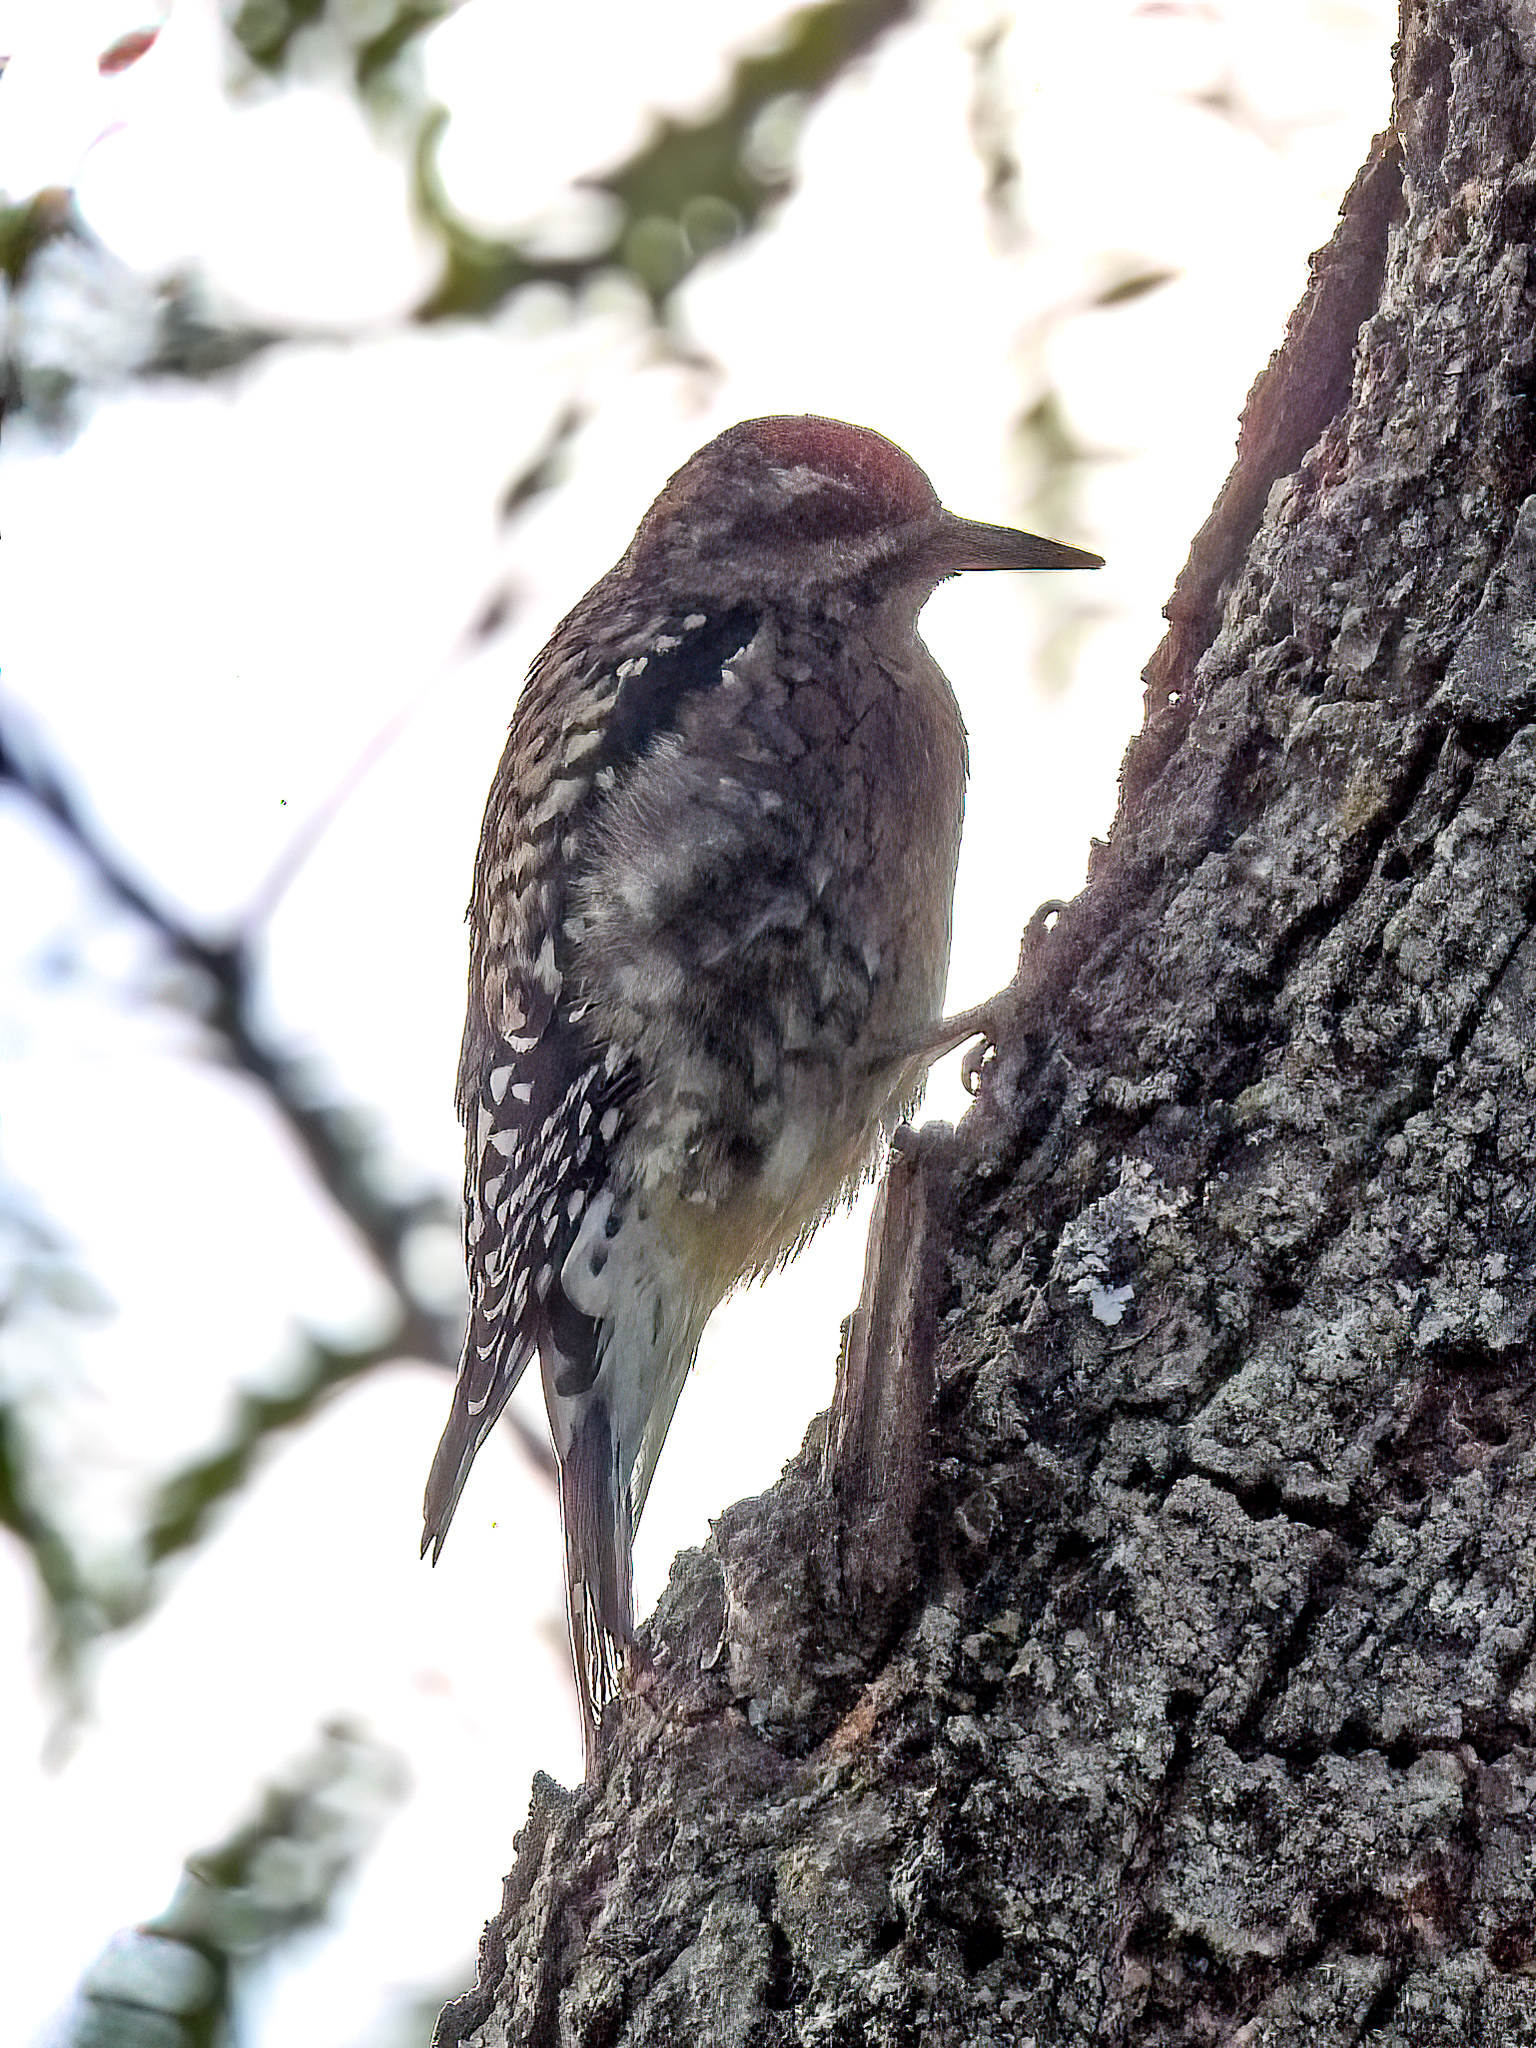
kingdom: Animalia
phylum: Chordata
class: Aves
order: Piciformes
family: Picidae
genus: Sphyrapicus
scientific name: Sphyrapicus varius
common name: Yellow-bellied sapsucker
